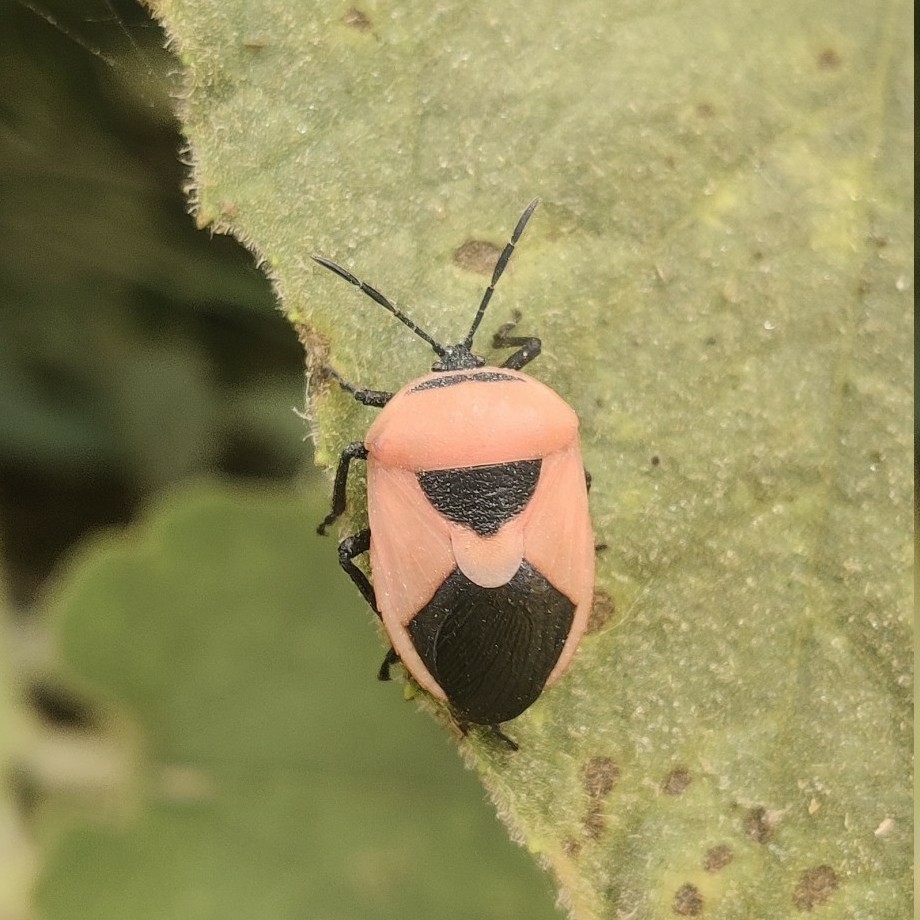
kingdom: Animalia
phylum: Arthropoda
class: Insecta
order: Hemiptera
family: Dinidoridae
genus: Coridius
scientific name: Coridius ianus
